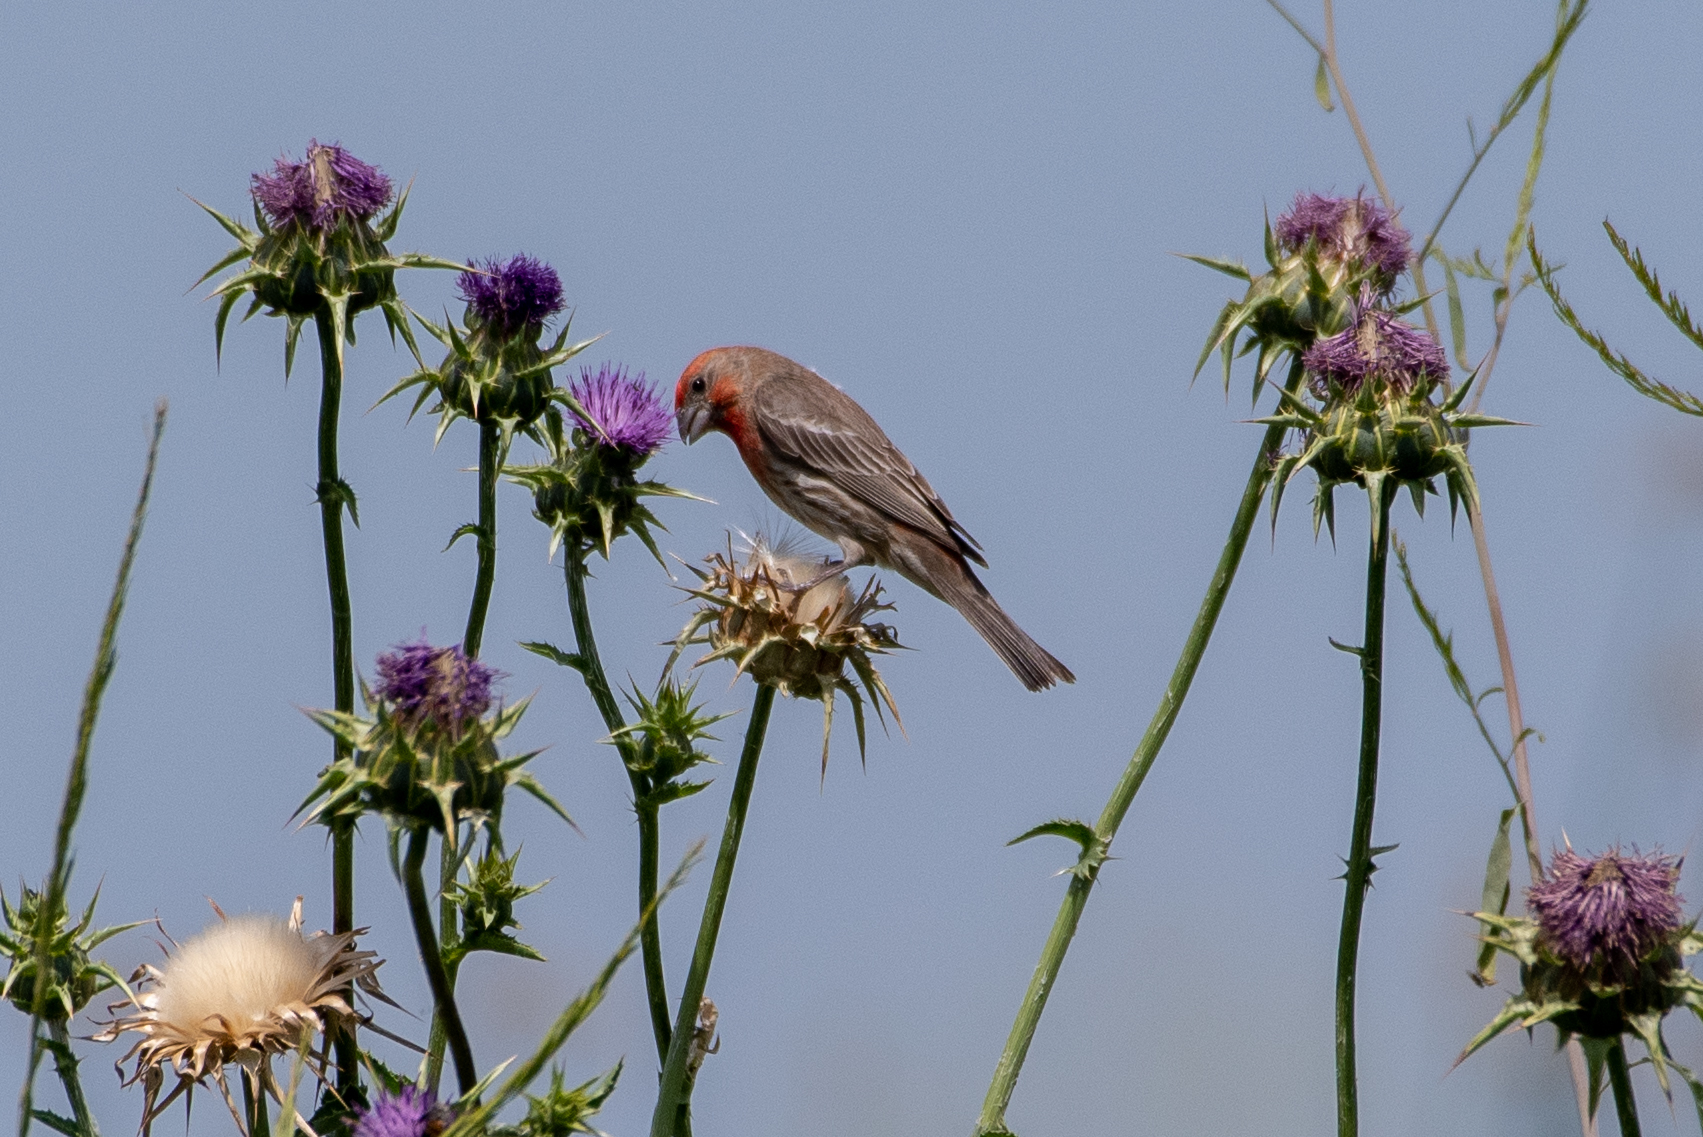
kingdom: Animalia
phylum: Chordata
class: Aves
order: Passeriformes
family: Fringillidae
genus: Haemorhous
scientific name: Haemorhous mexicanus
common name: House finch
